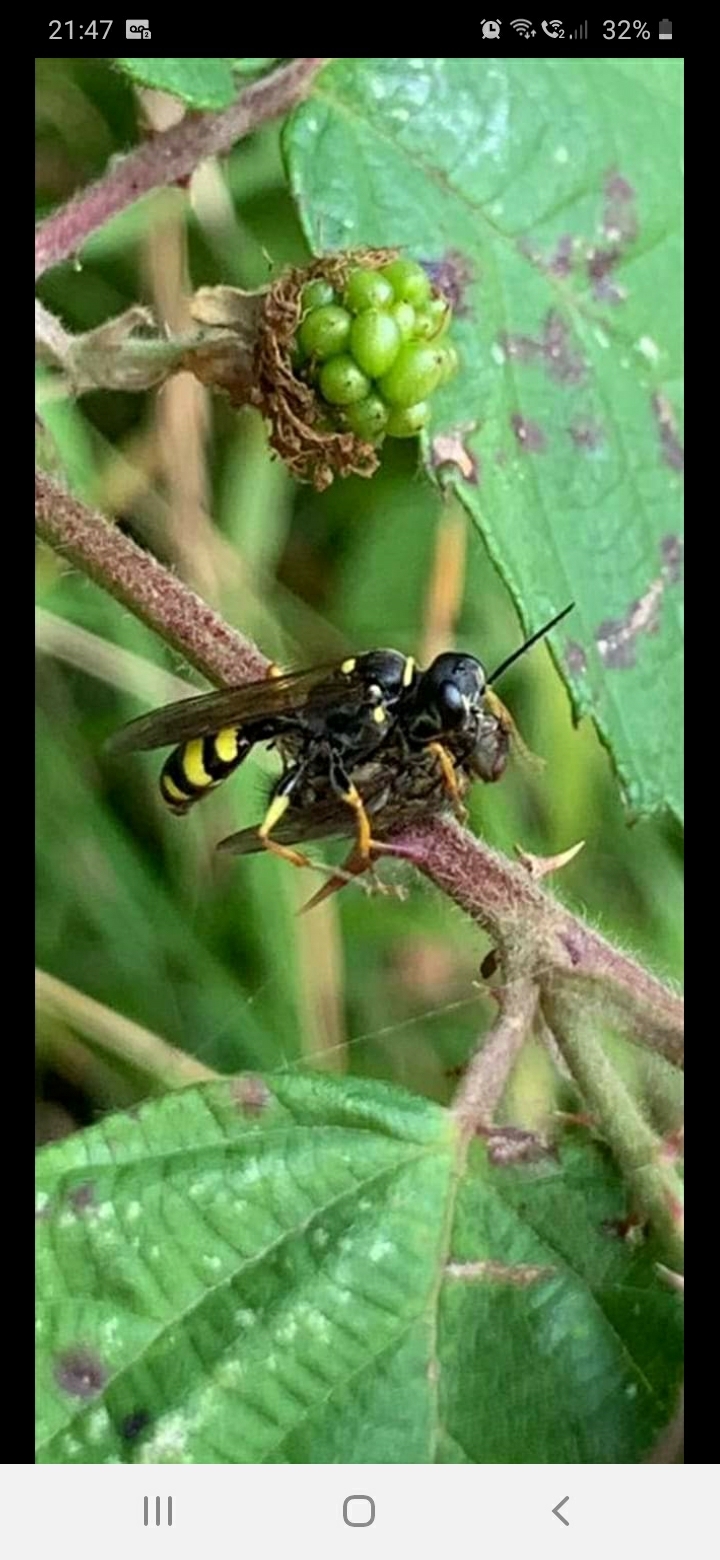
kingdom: Animalia
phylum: Arthropoda
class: Insecta
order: Hymenoptera
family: Crabronidae
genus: Mellinus
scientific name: Mellinus arvensis
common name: Field digger wasp
